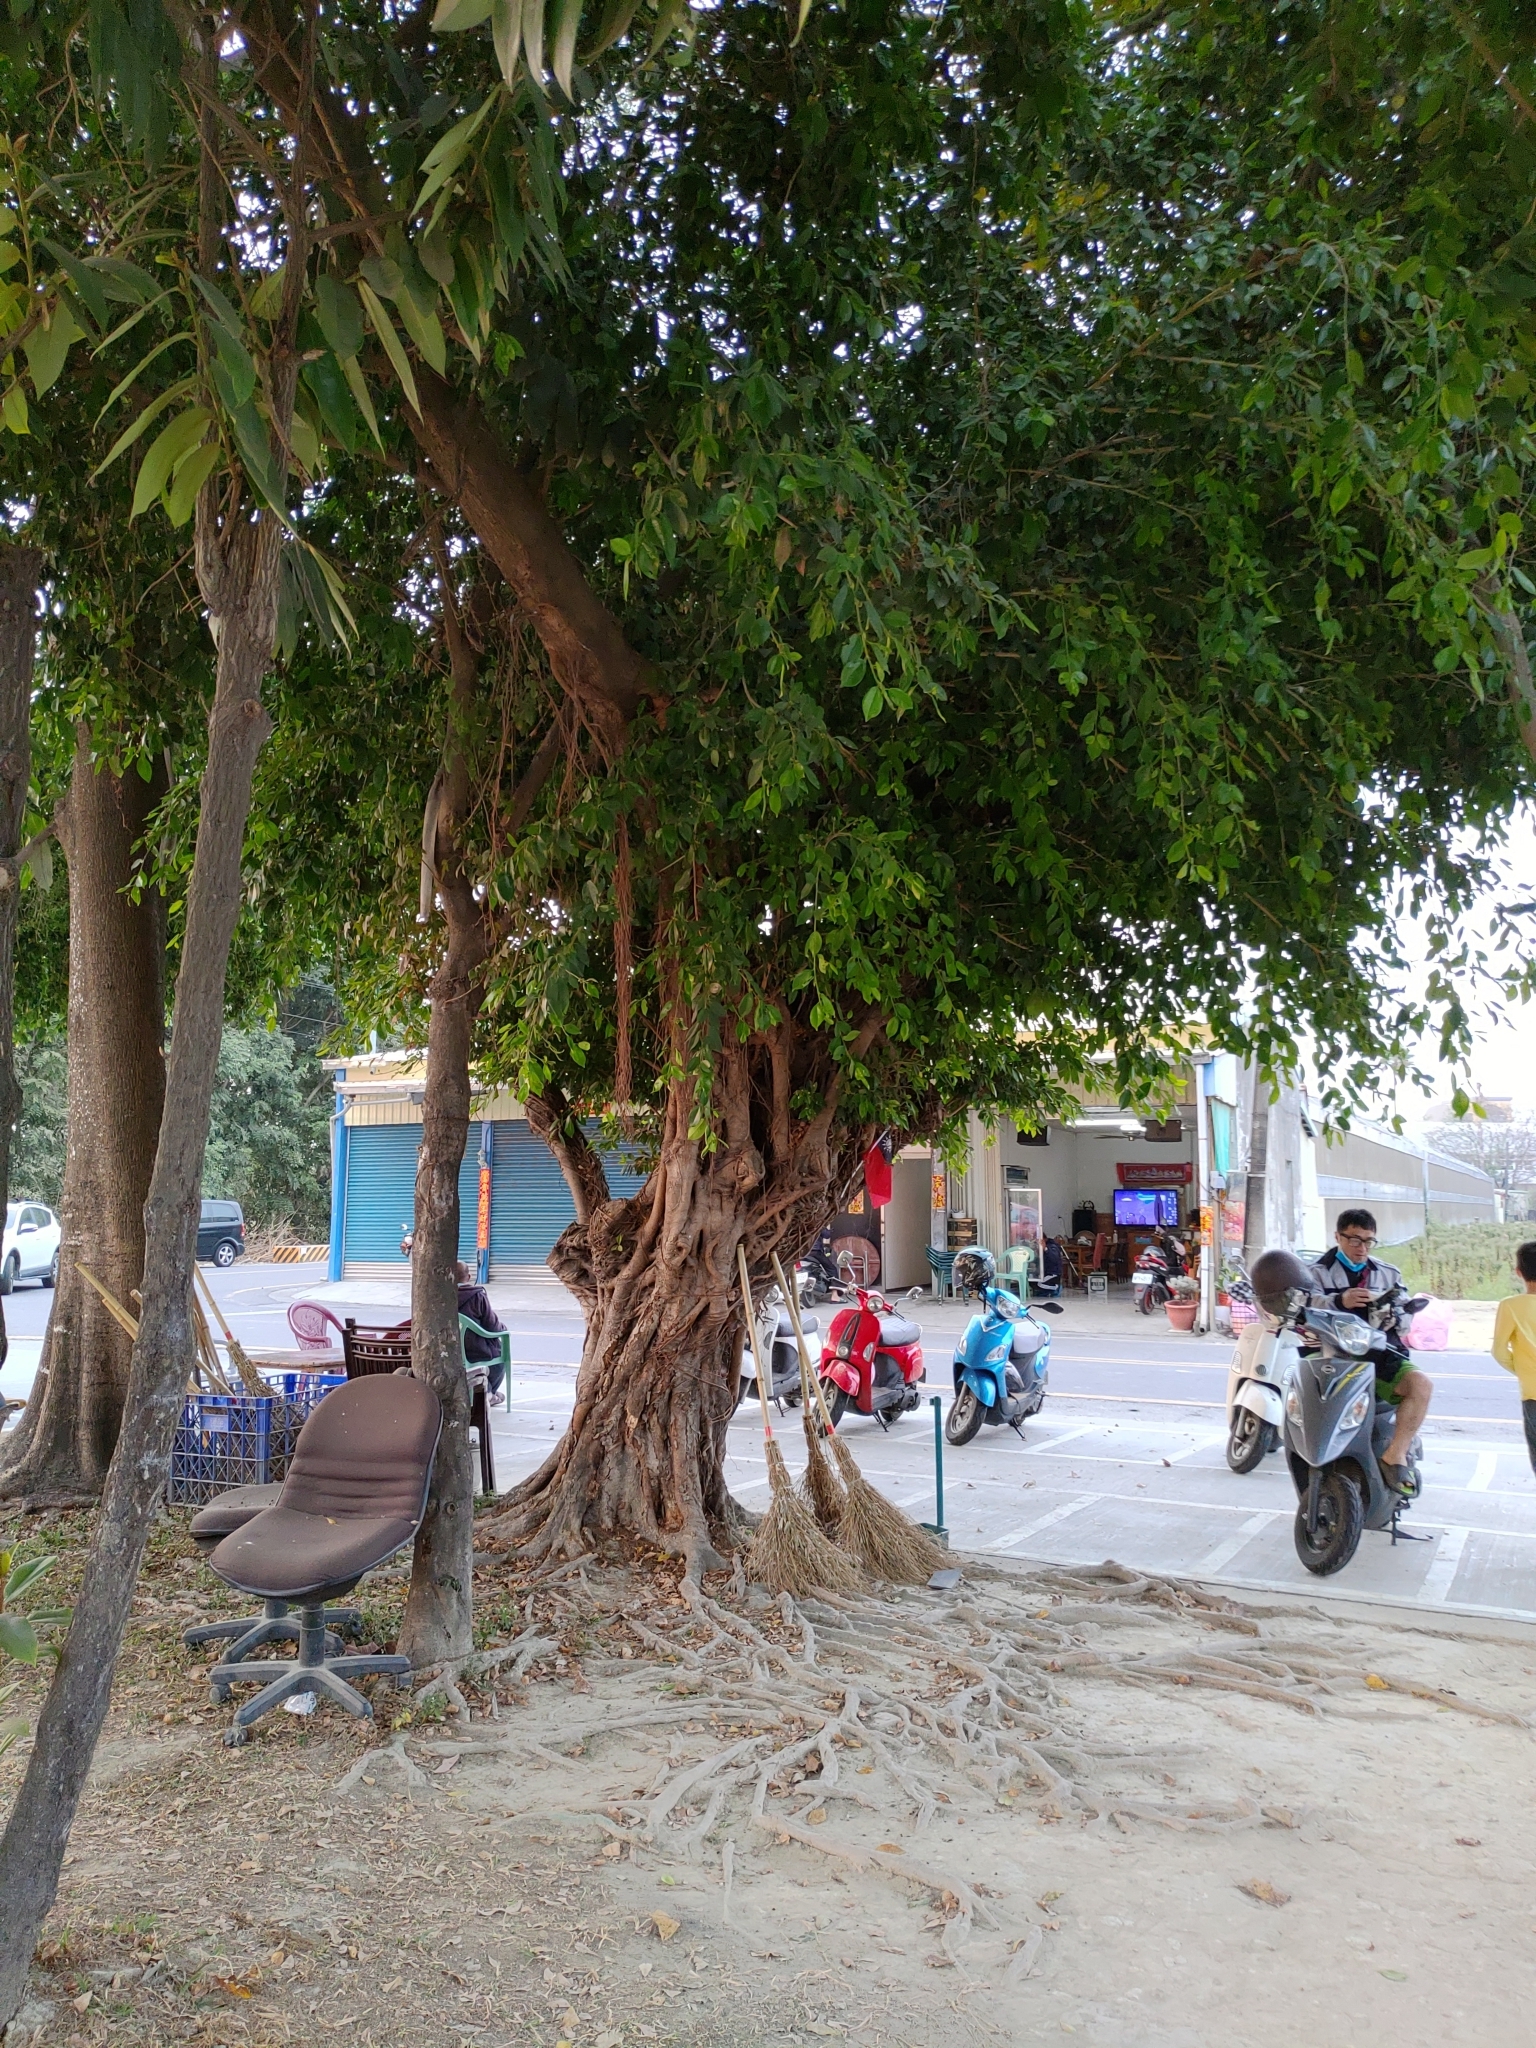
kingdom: Plantae
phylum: Tracheophyta
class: Magnoliopsida
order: Rosales
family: Moraceae
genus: Ficus
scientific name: Ficus microcarpa
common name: Chinese banyan
